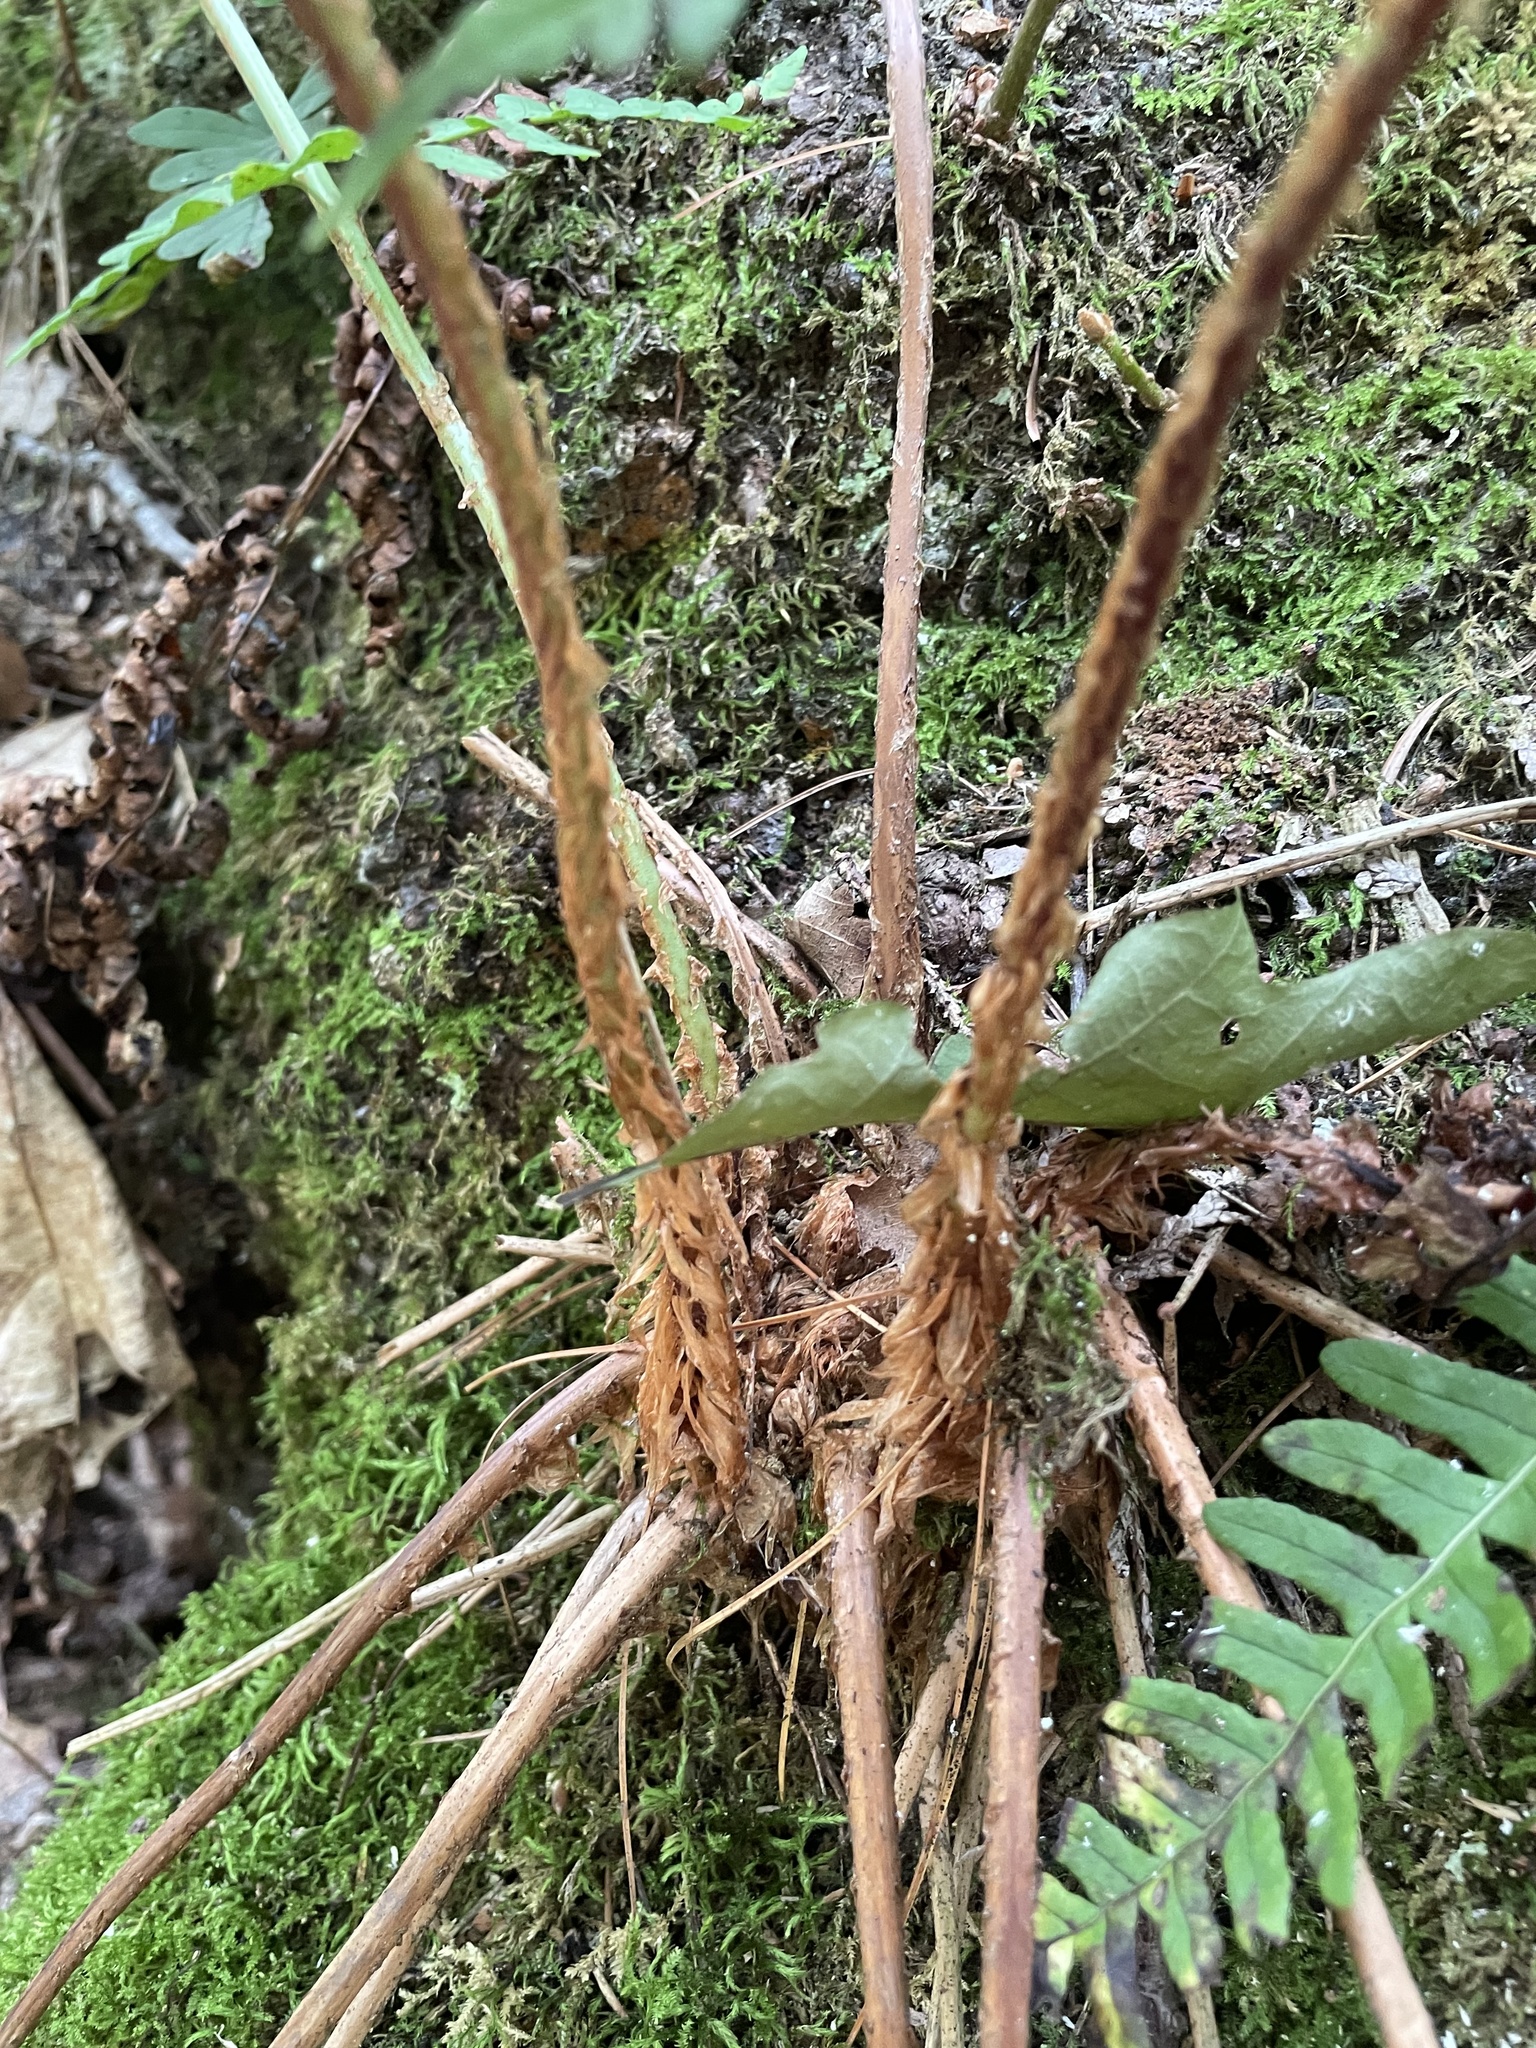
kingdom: Plantae
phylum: Tracheophyta
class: Polypodiopsida
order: Polypodiales
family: Dryopteridaceae
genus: Dryopteris
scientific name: Dryopteris marginalis
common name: Marginal wood fern
